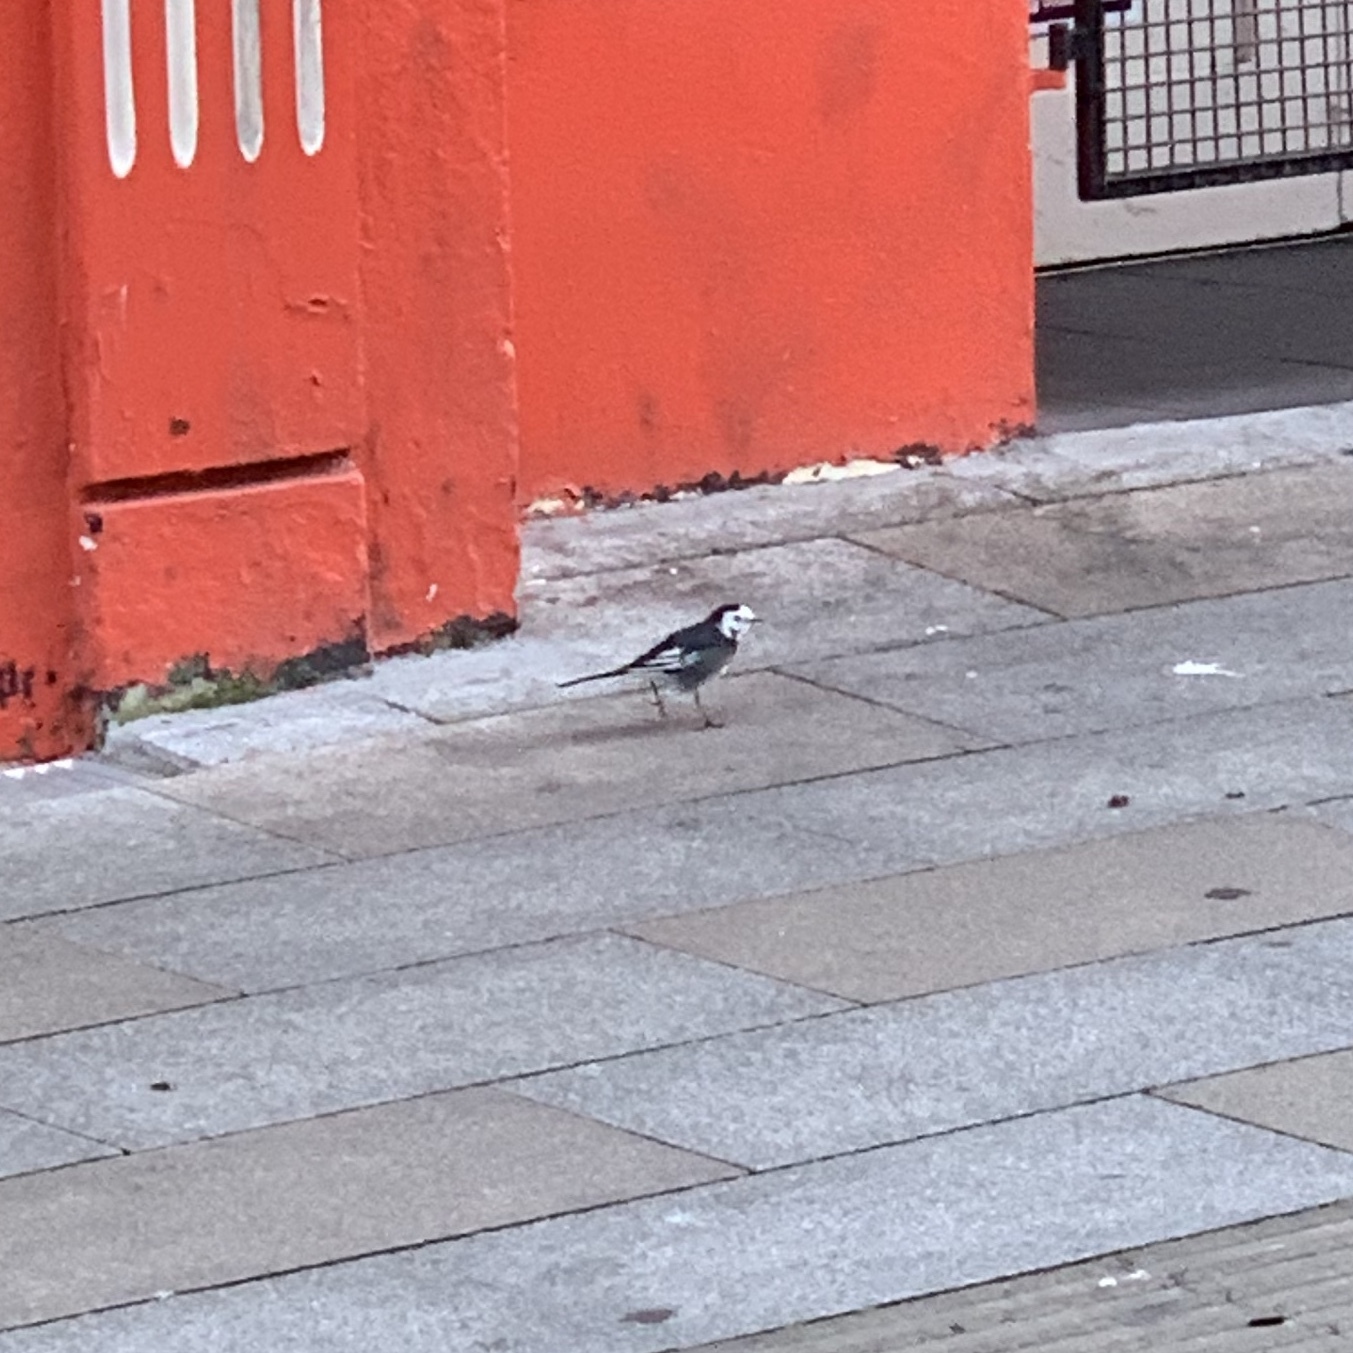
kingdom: Animalia
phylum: Chordata
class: Aves
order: Passeriformes
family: Motacillidae
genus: Motacilla
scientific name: Motacilla alba
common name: White wagtail
